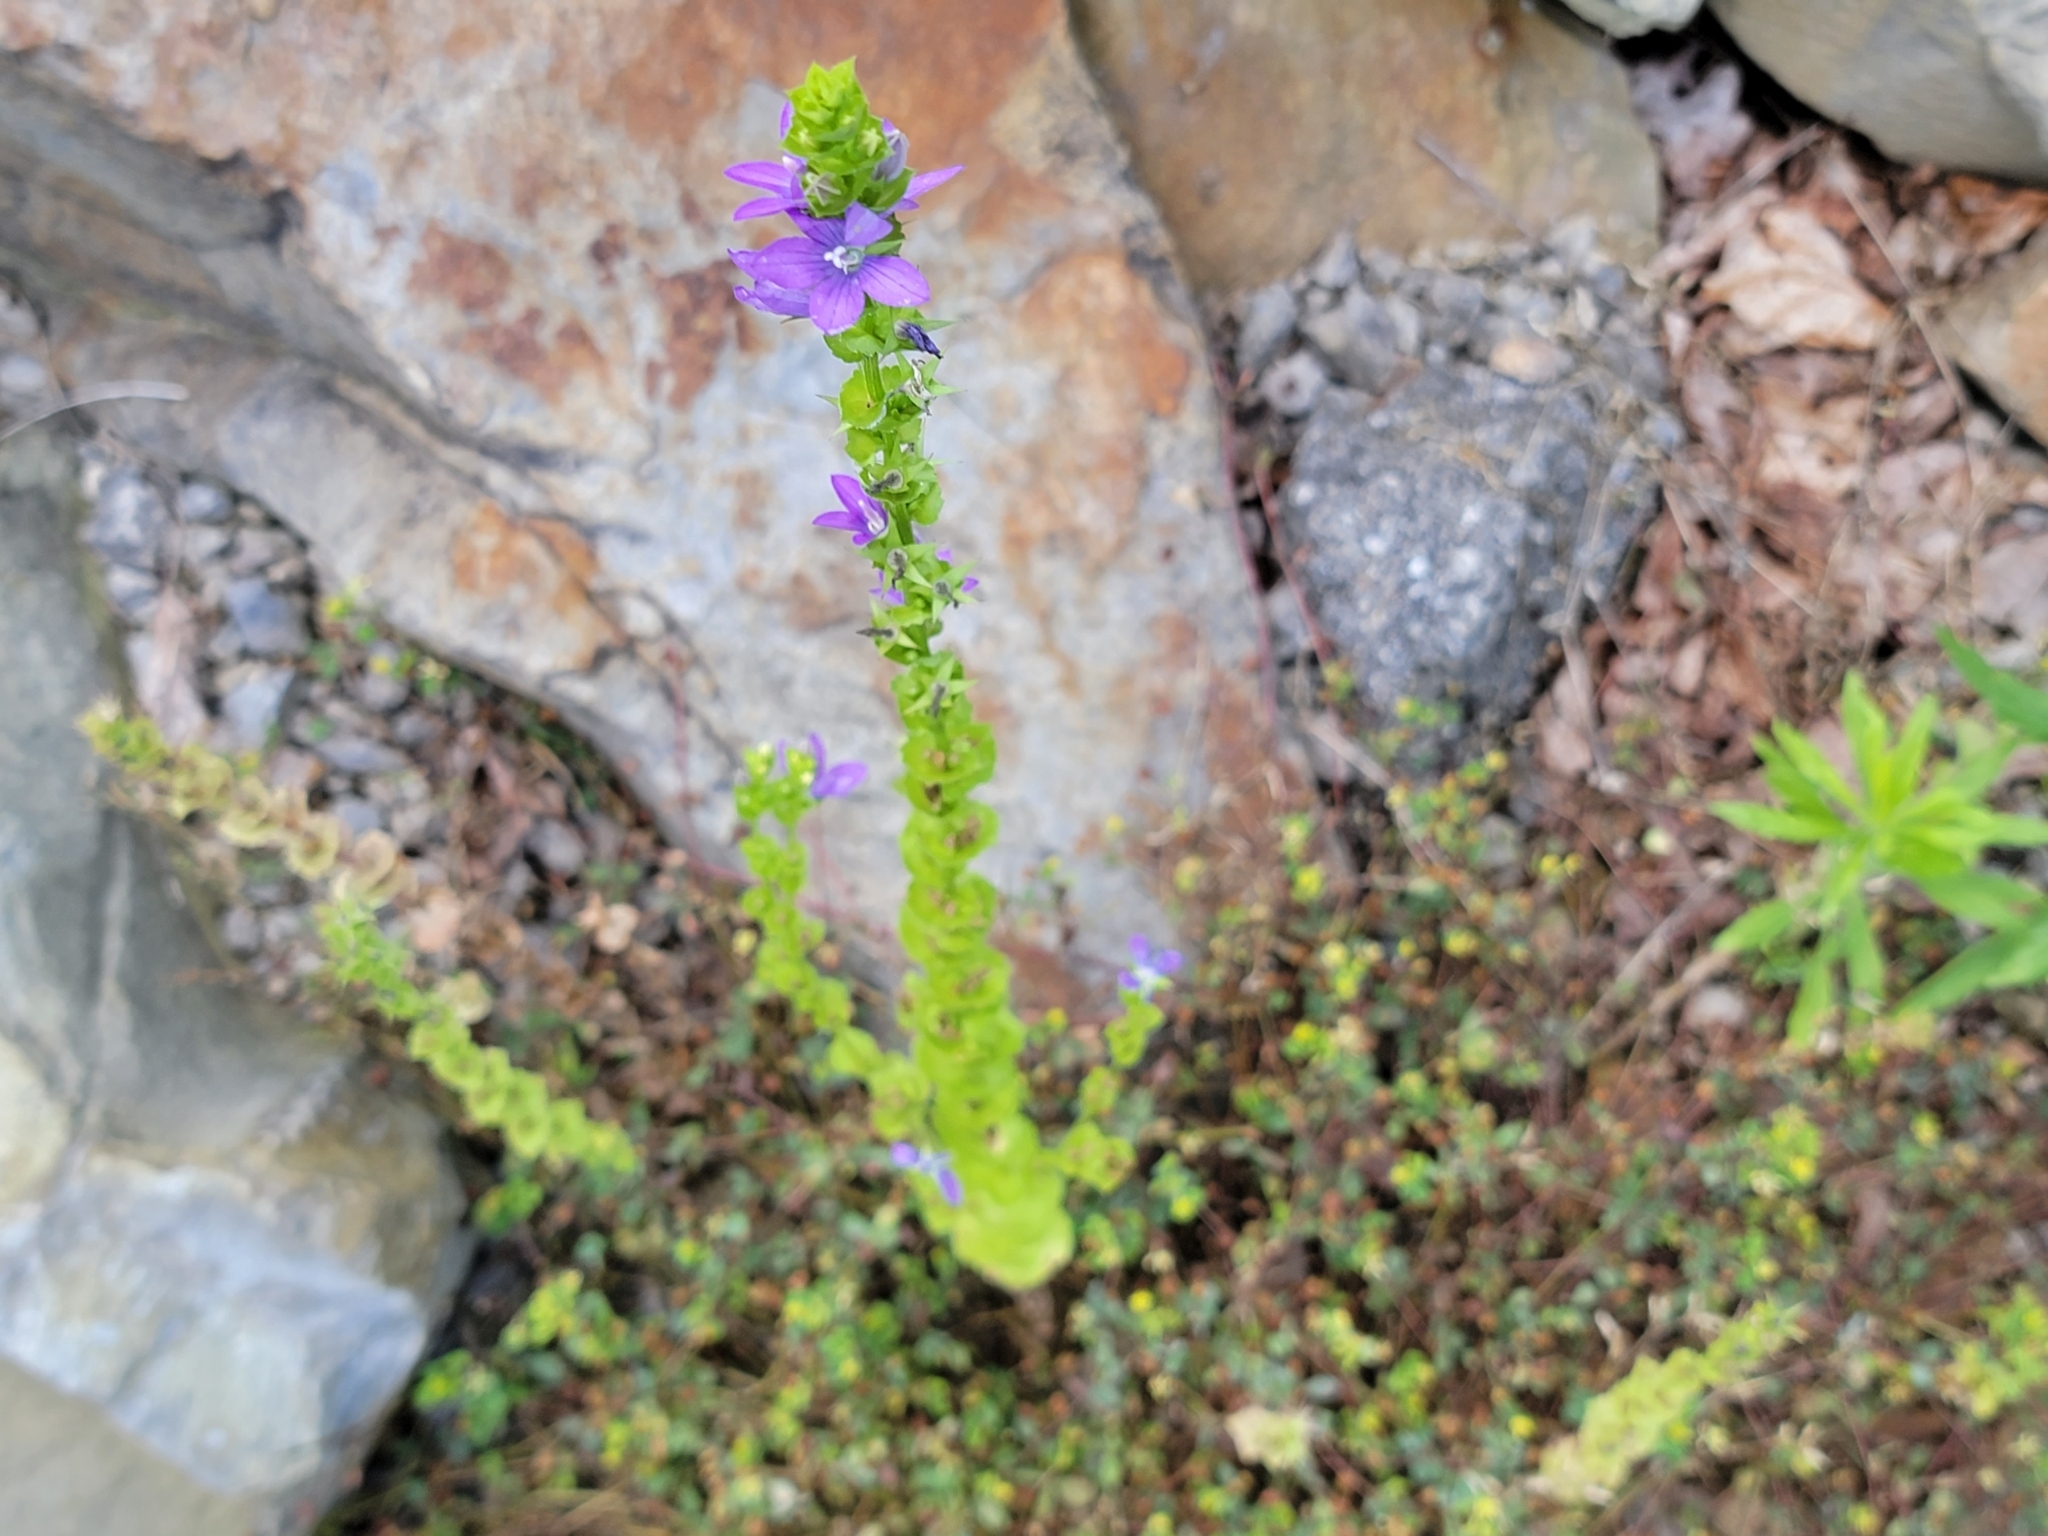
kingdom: Plantae
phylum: Tracheophyta
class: Magnoliopsida
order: Asterales
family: Campanulaceae
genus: Triodanis
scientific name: Triodanis perfoliata
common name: Clasping venus' looking-glass
